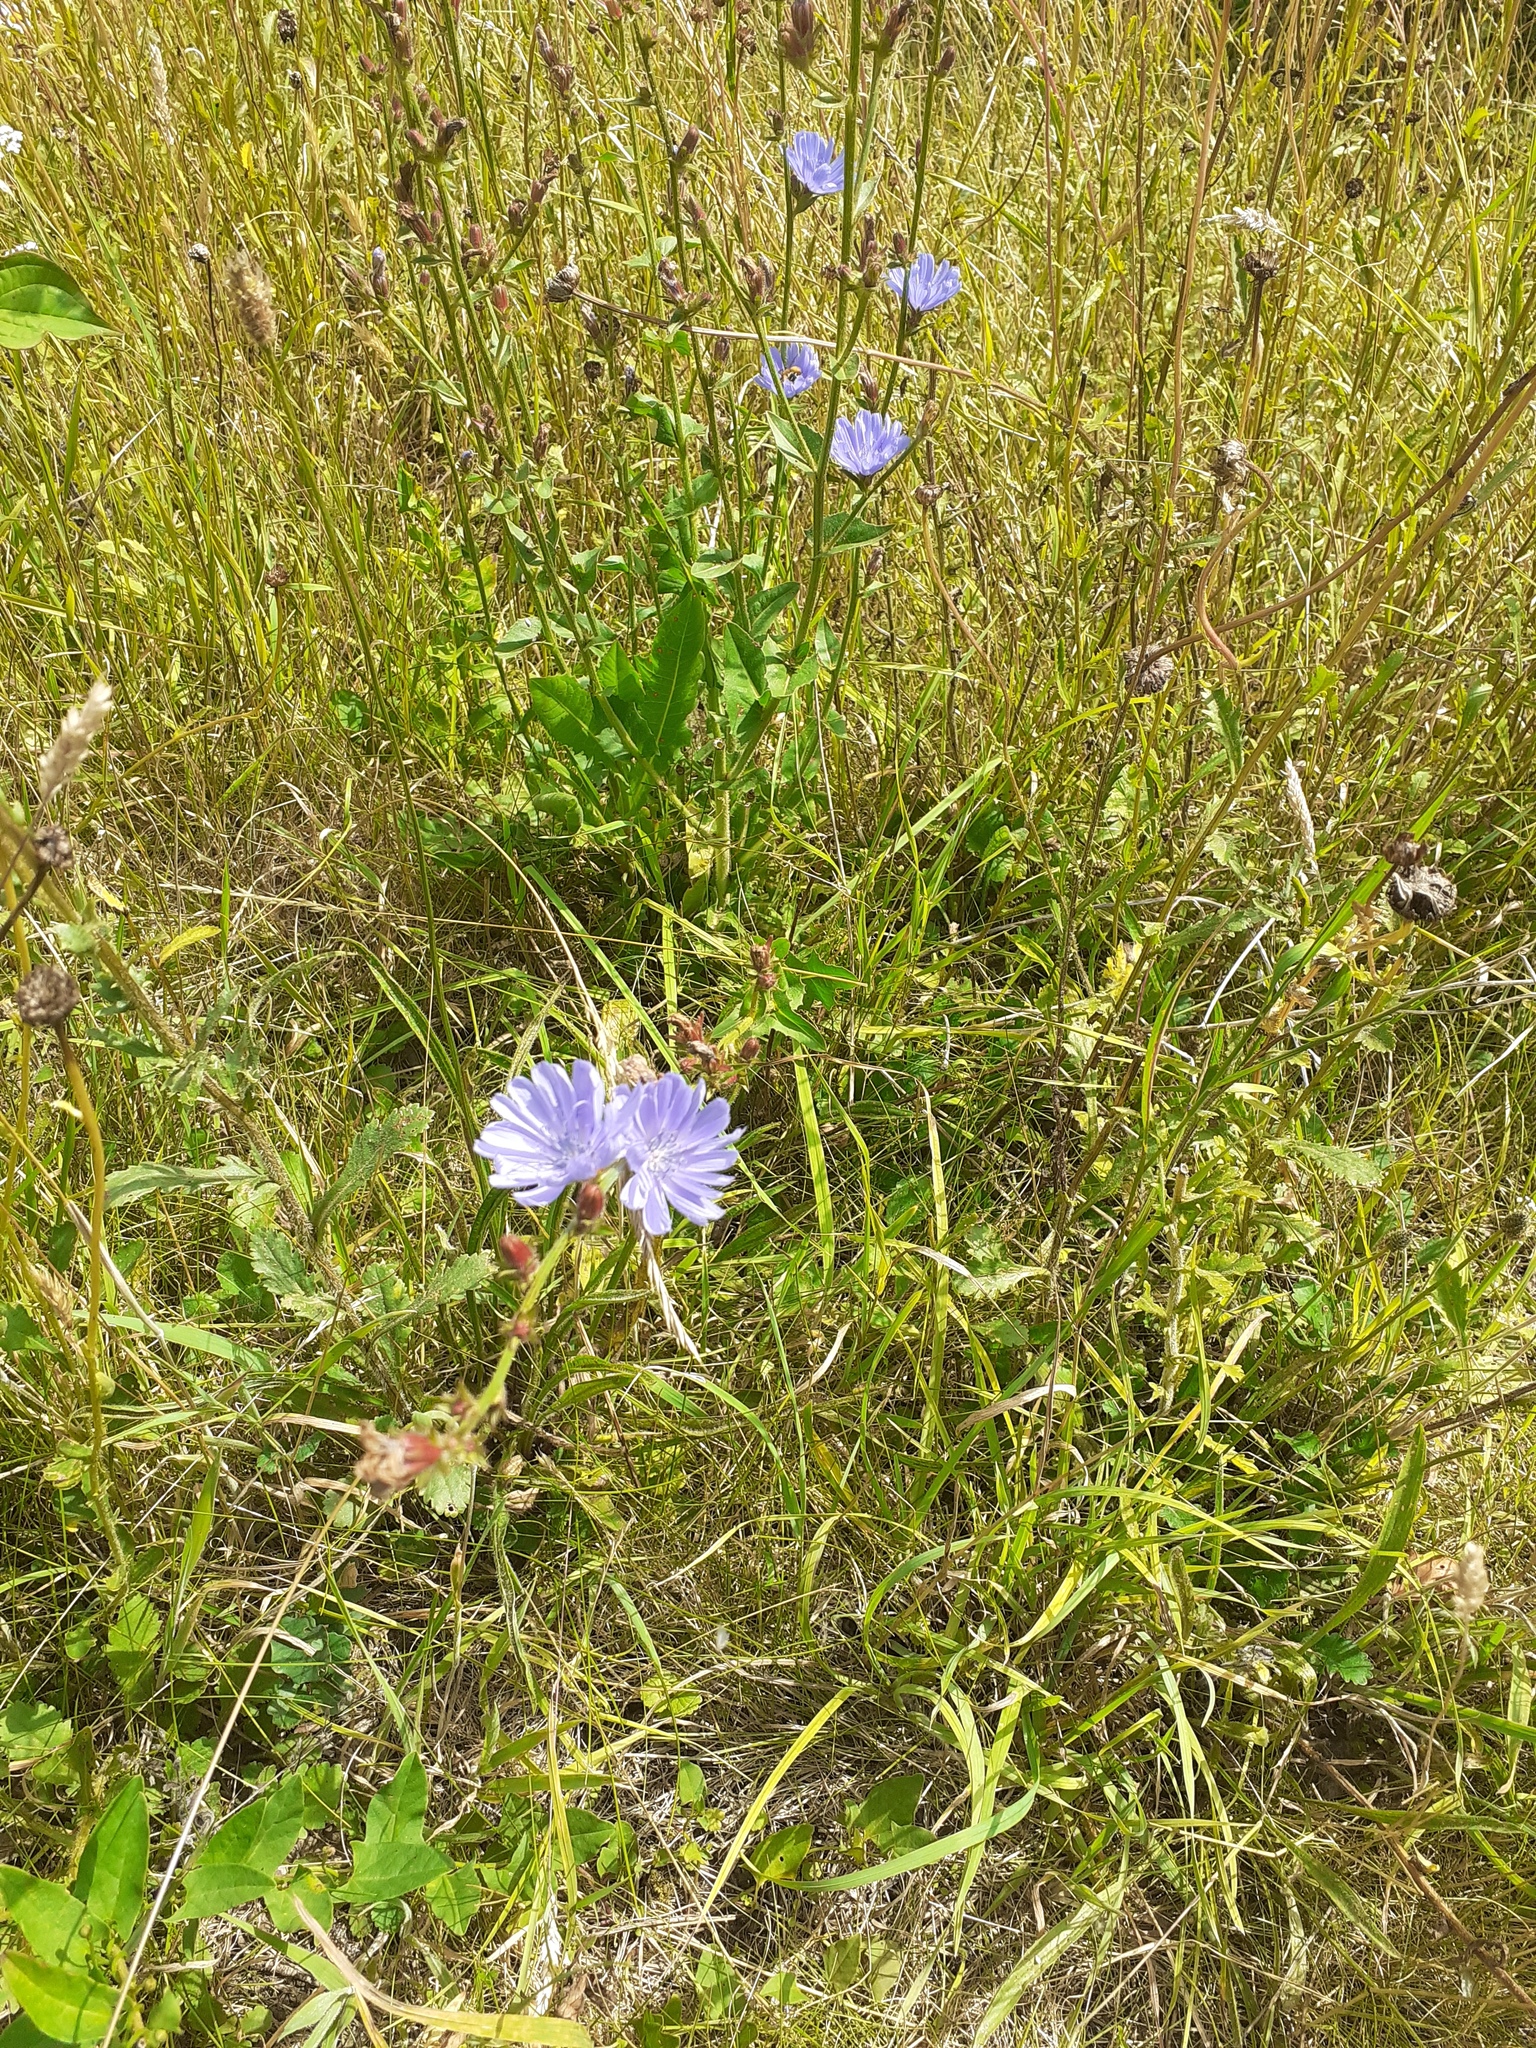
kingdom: Plantae
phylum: Tracheophyta
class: Magnoliopsida
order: Asterales
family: Asteraceae
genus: Cichorium
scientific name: Cichorium intybus
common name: Chicory
